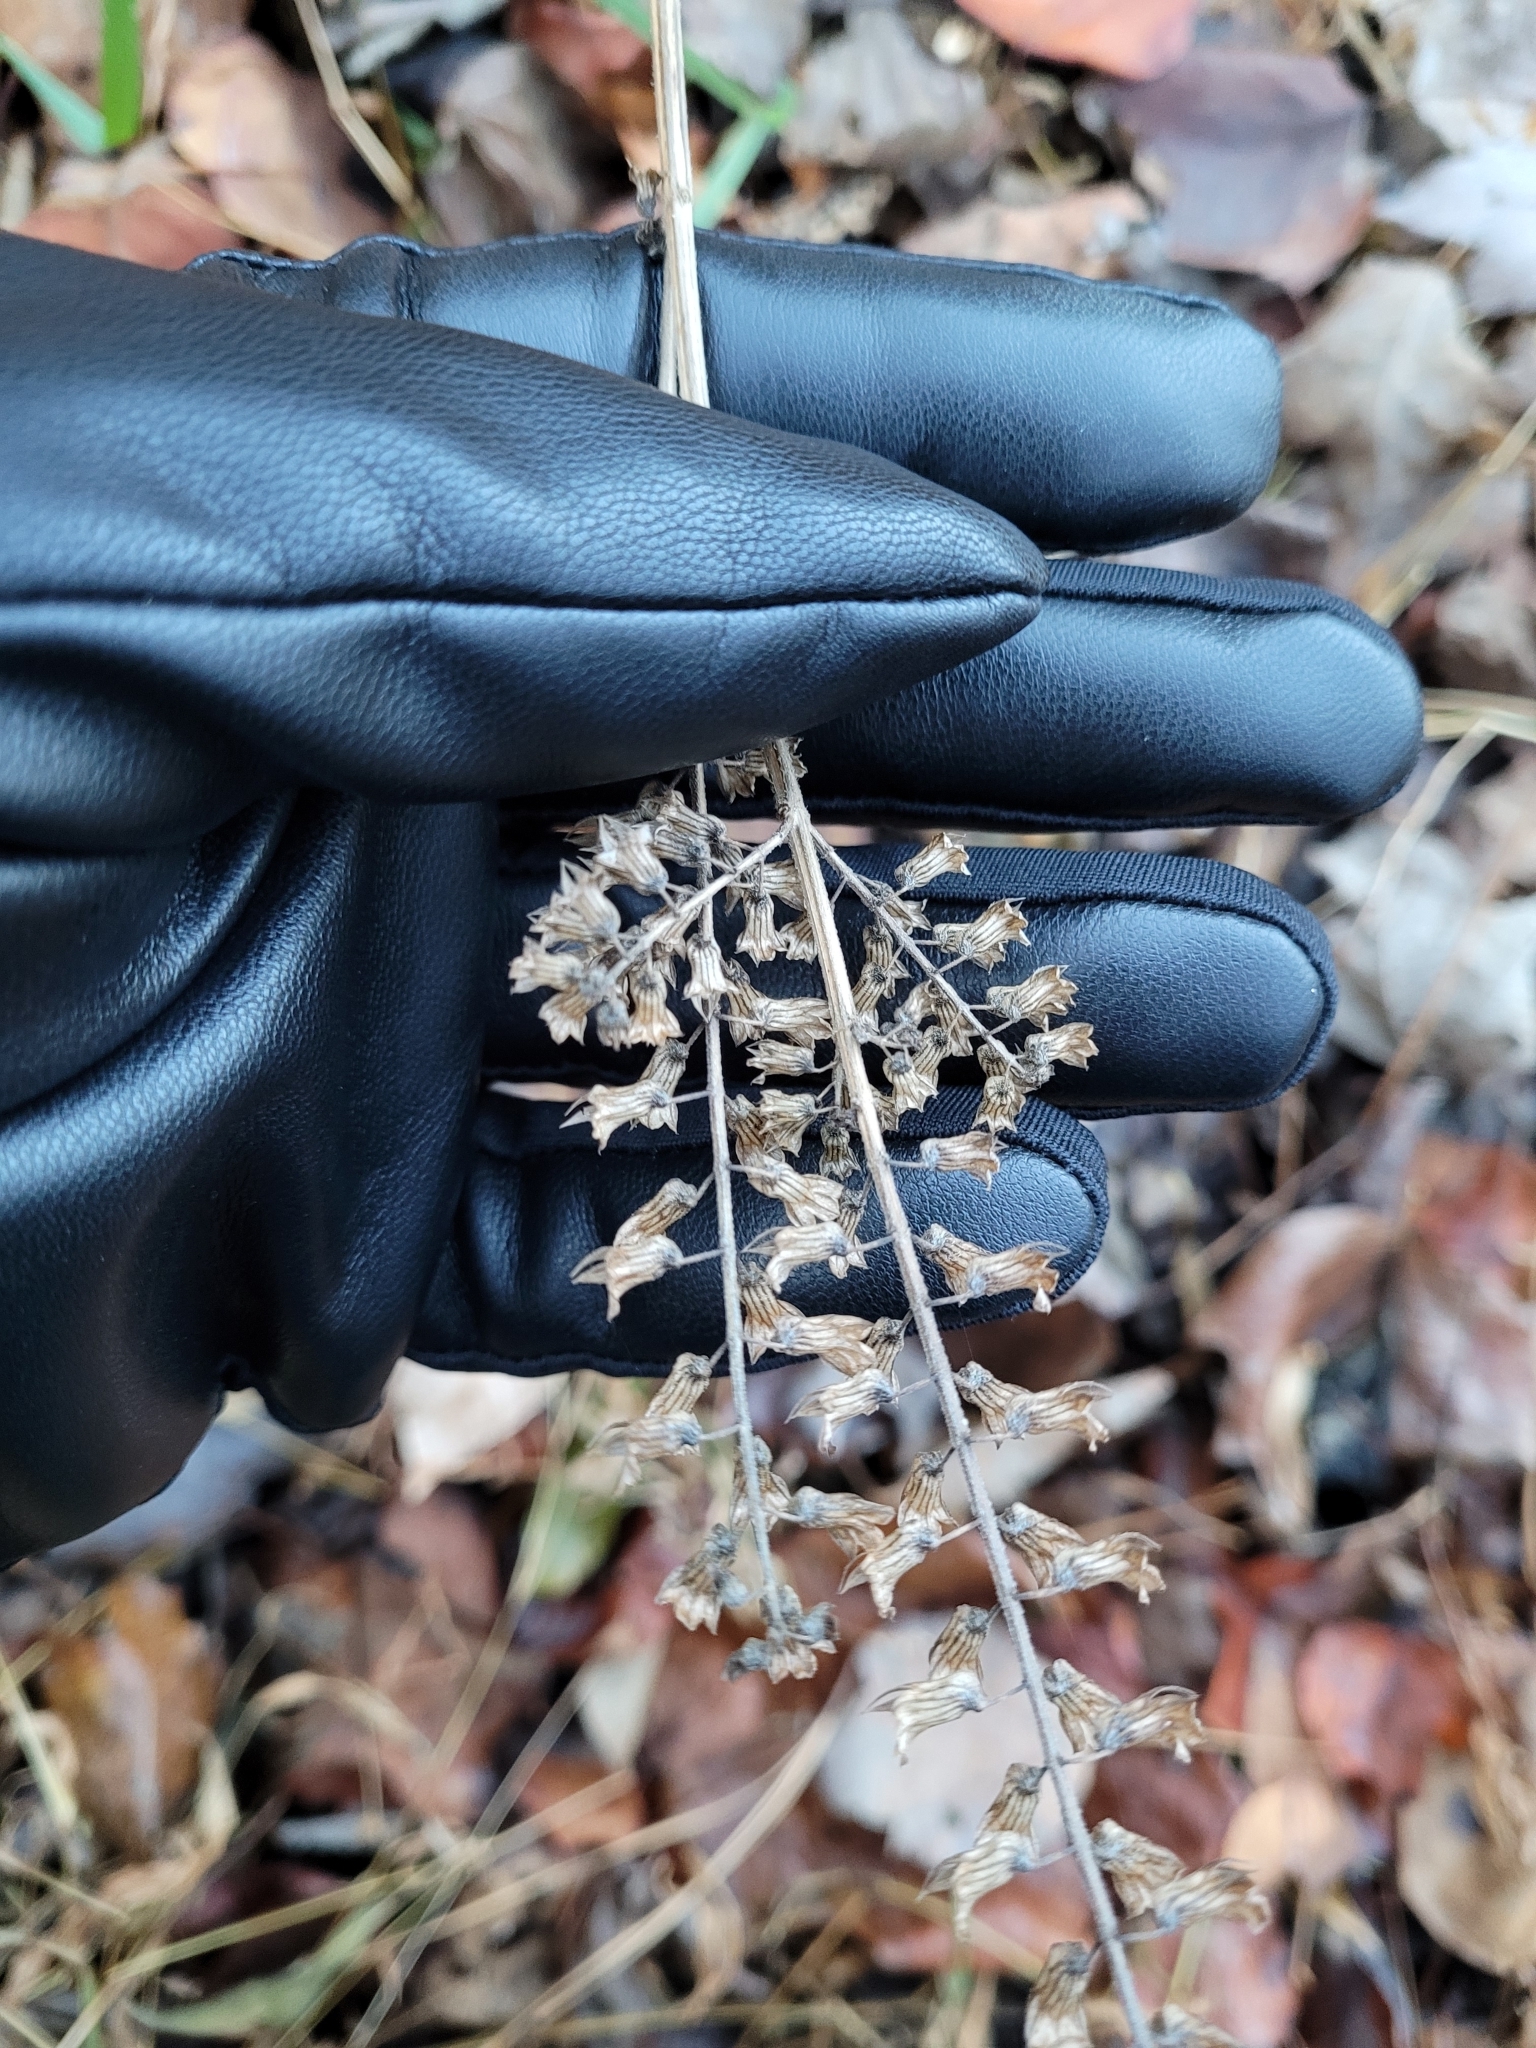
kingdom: Plantae
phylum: Tracheophyta
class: Magnoliopsida
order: Lamiales
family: Lamiaceae
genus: Perilla
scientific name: Perilla frutescens
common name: Perilla
